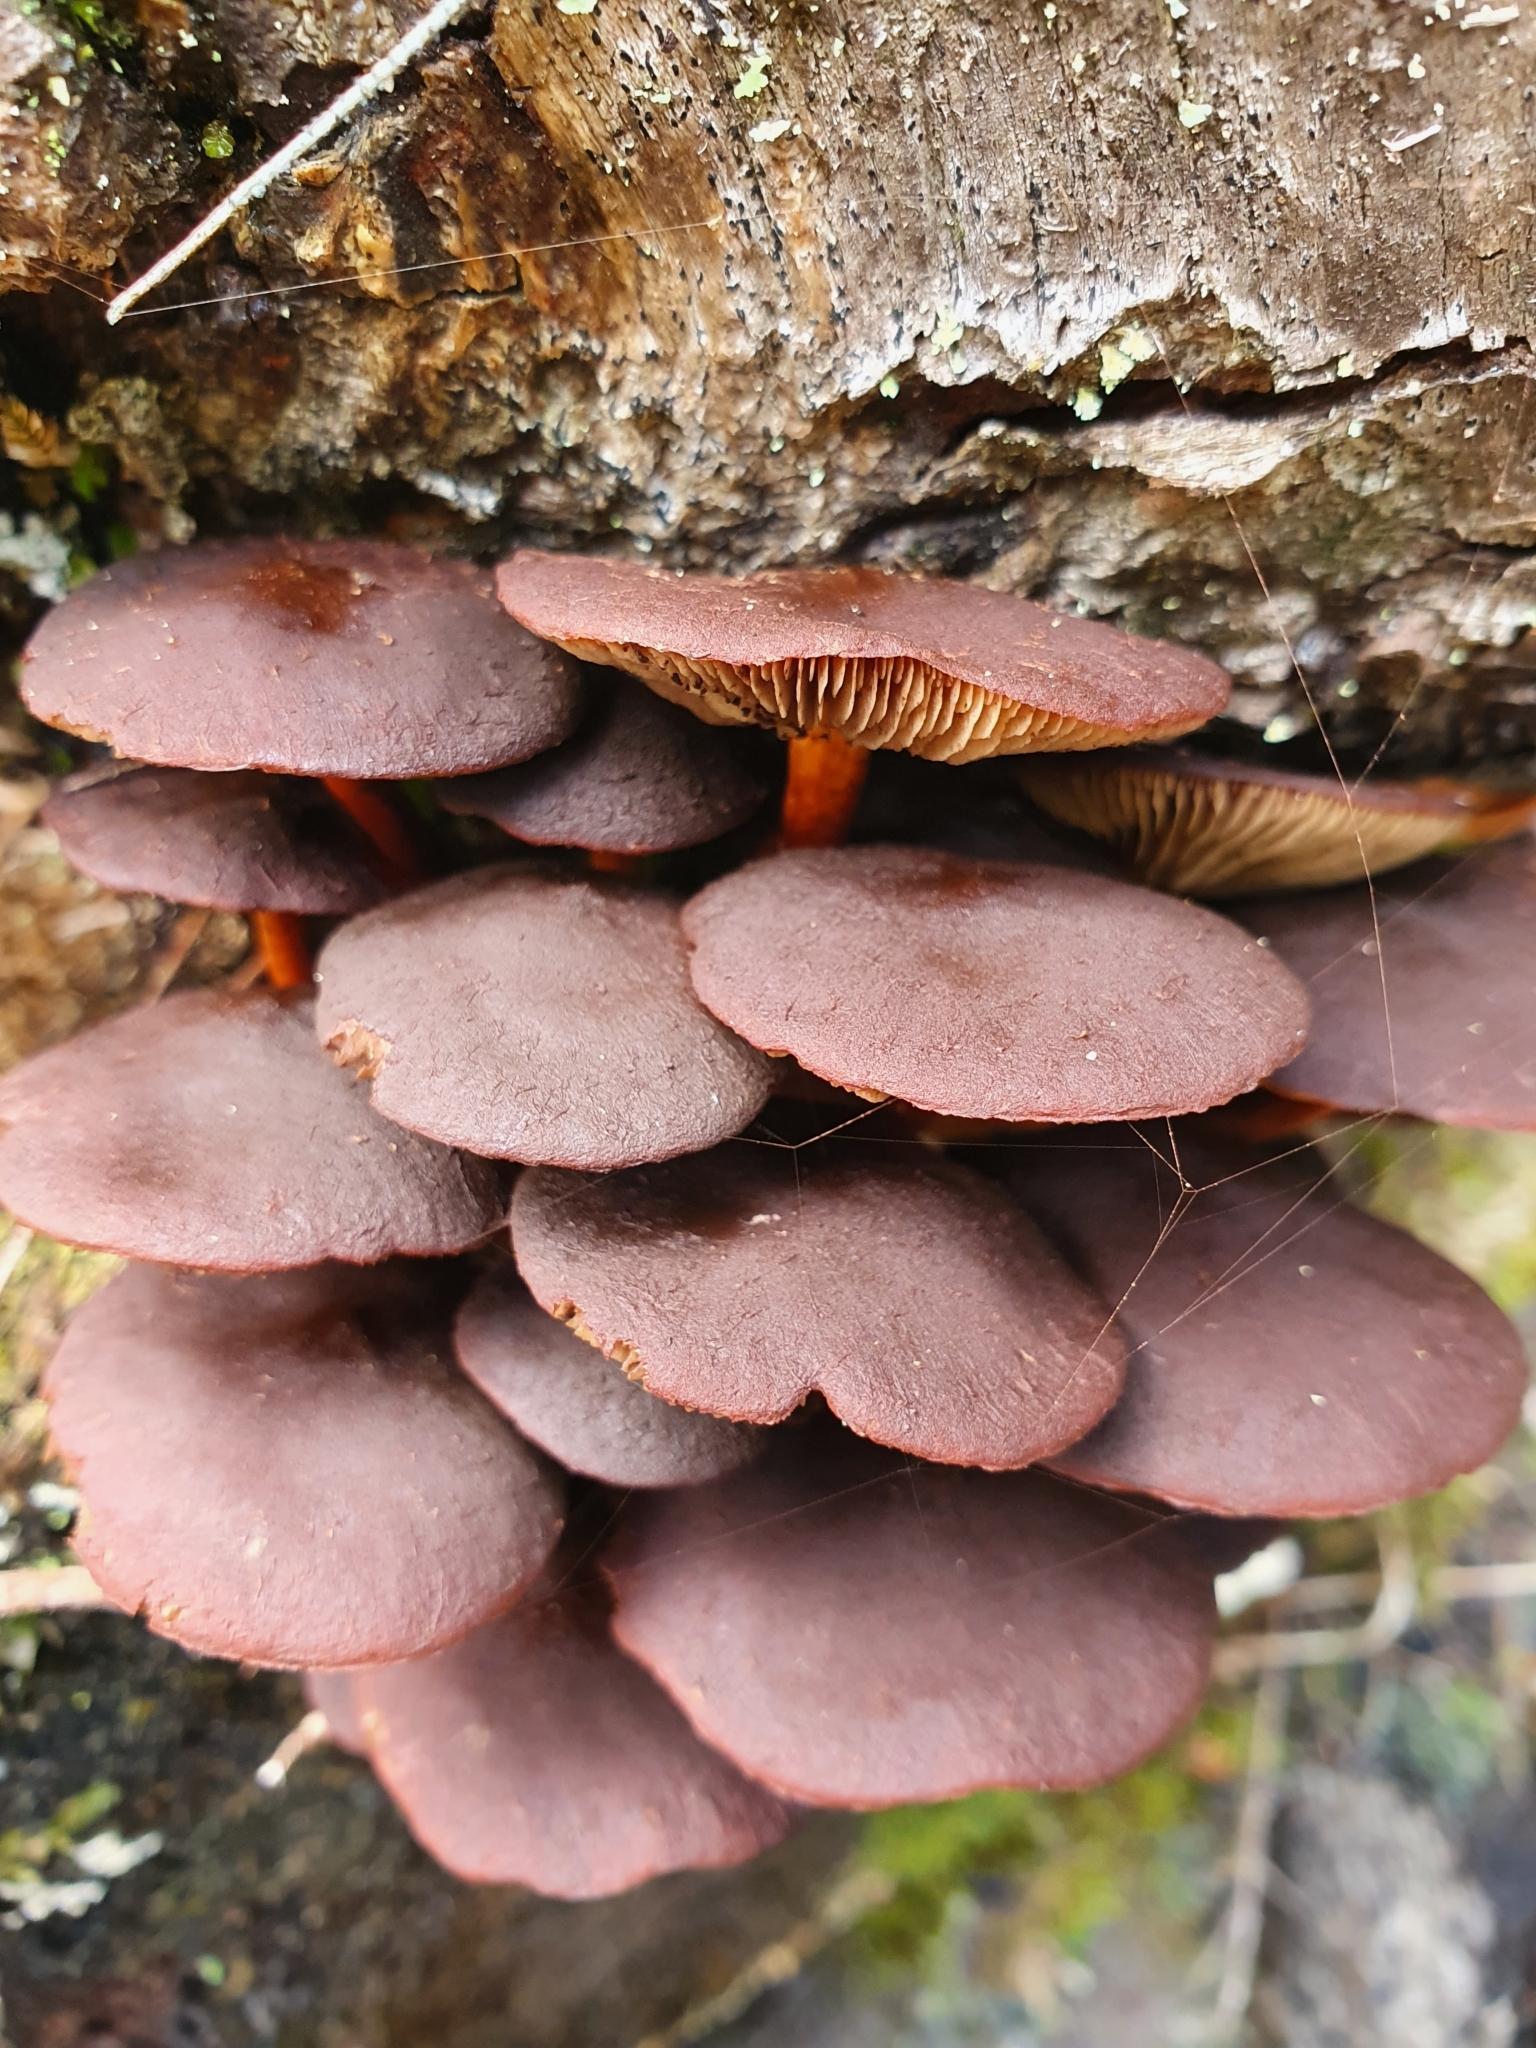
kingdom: Fungi
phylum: Basidiomycota
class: Agaricomycetes
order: Agaricales
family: Strophariaceae
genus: Hypholoma
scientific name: Hypholoma brunneum
